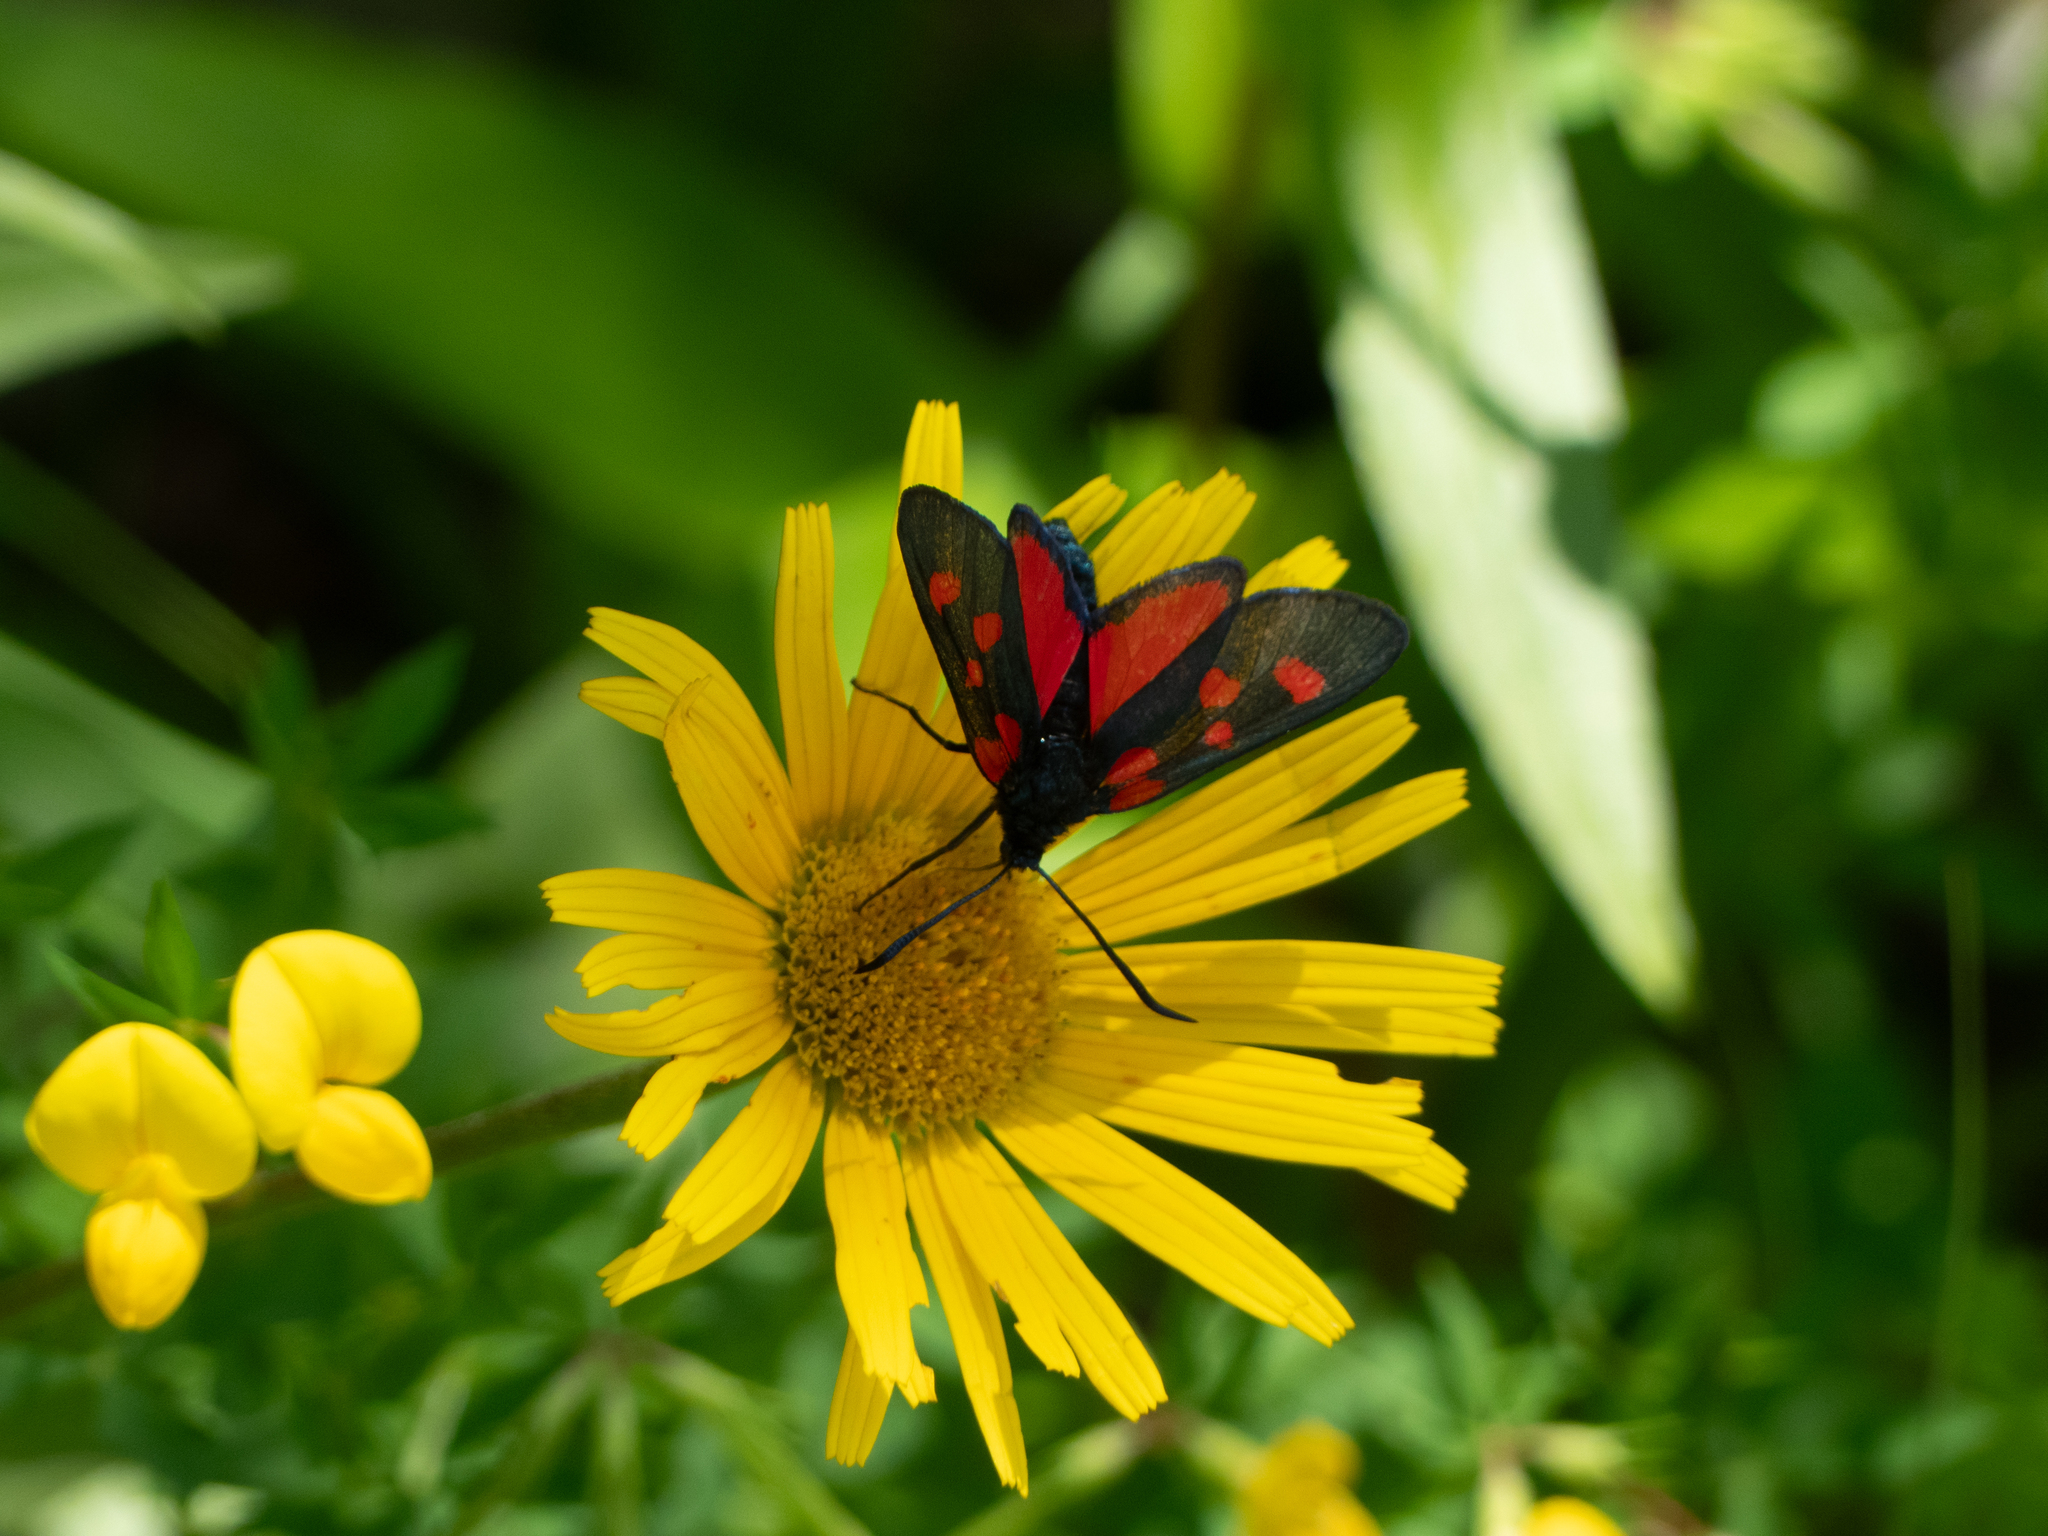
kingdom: Animalia
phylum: Arthropoda
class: Insecta
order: Lepidoptera
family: Zygaenidae
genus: Zygaena
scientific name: Zygaena lonicerae
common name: Narrow-bordered five-spot burnet
